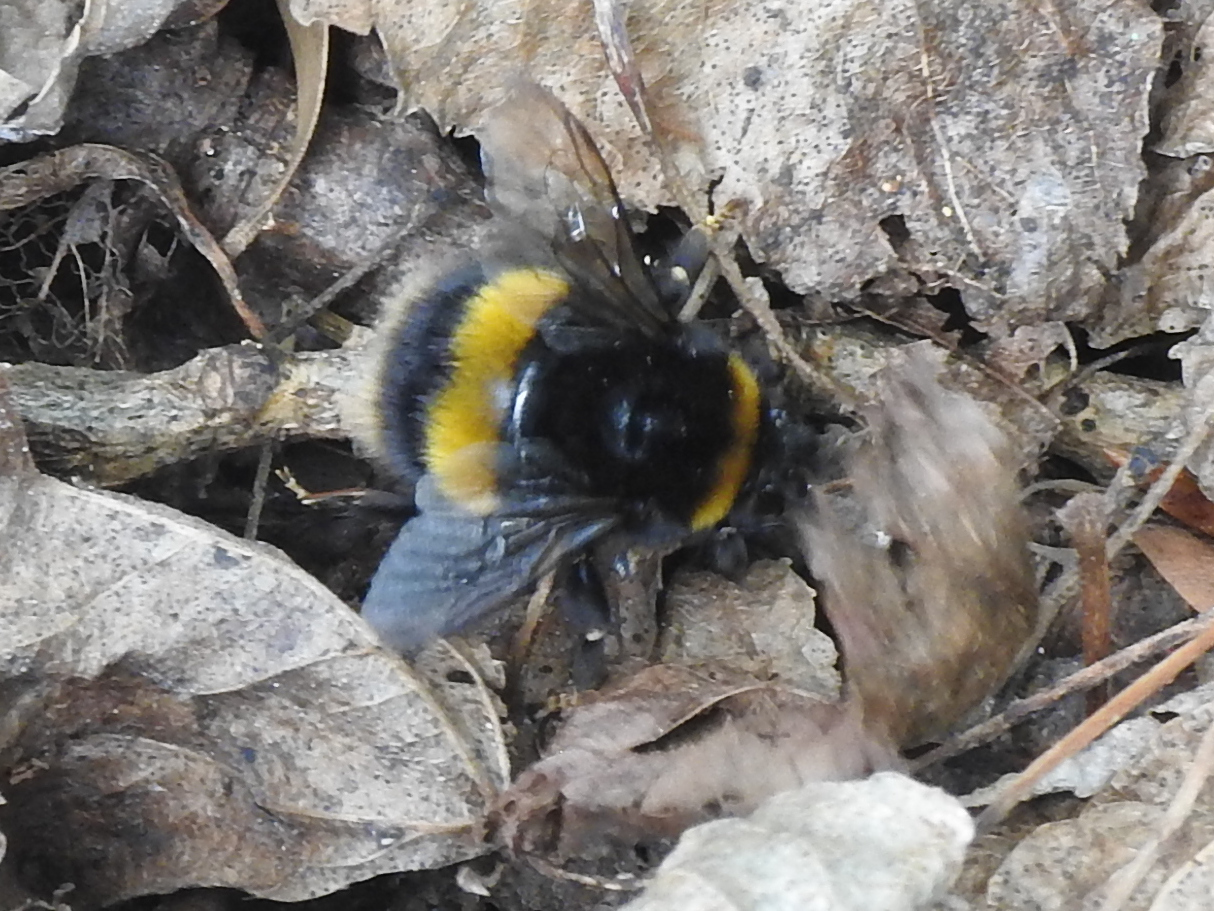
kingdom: Animalia
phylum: Arthropoda
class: Insecta
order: Hymenoptera
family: Apidae
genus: Bombus
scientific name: Bombus terrestris
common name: Buff-tailed bumblebee
